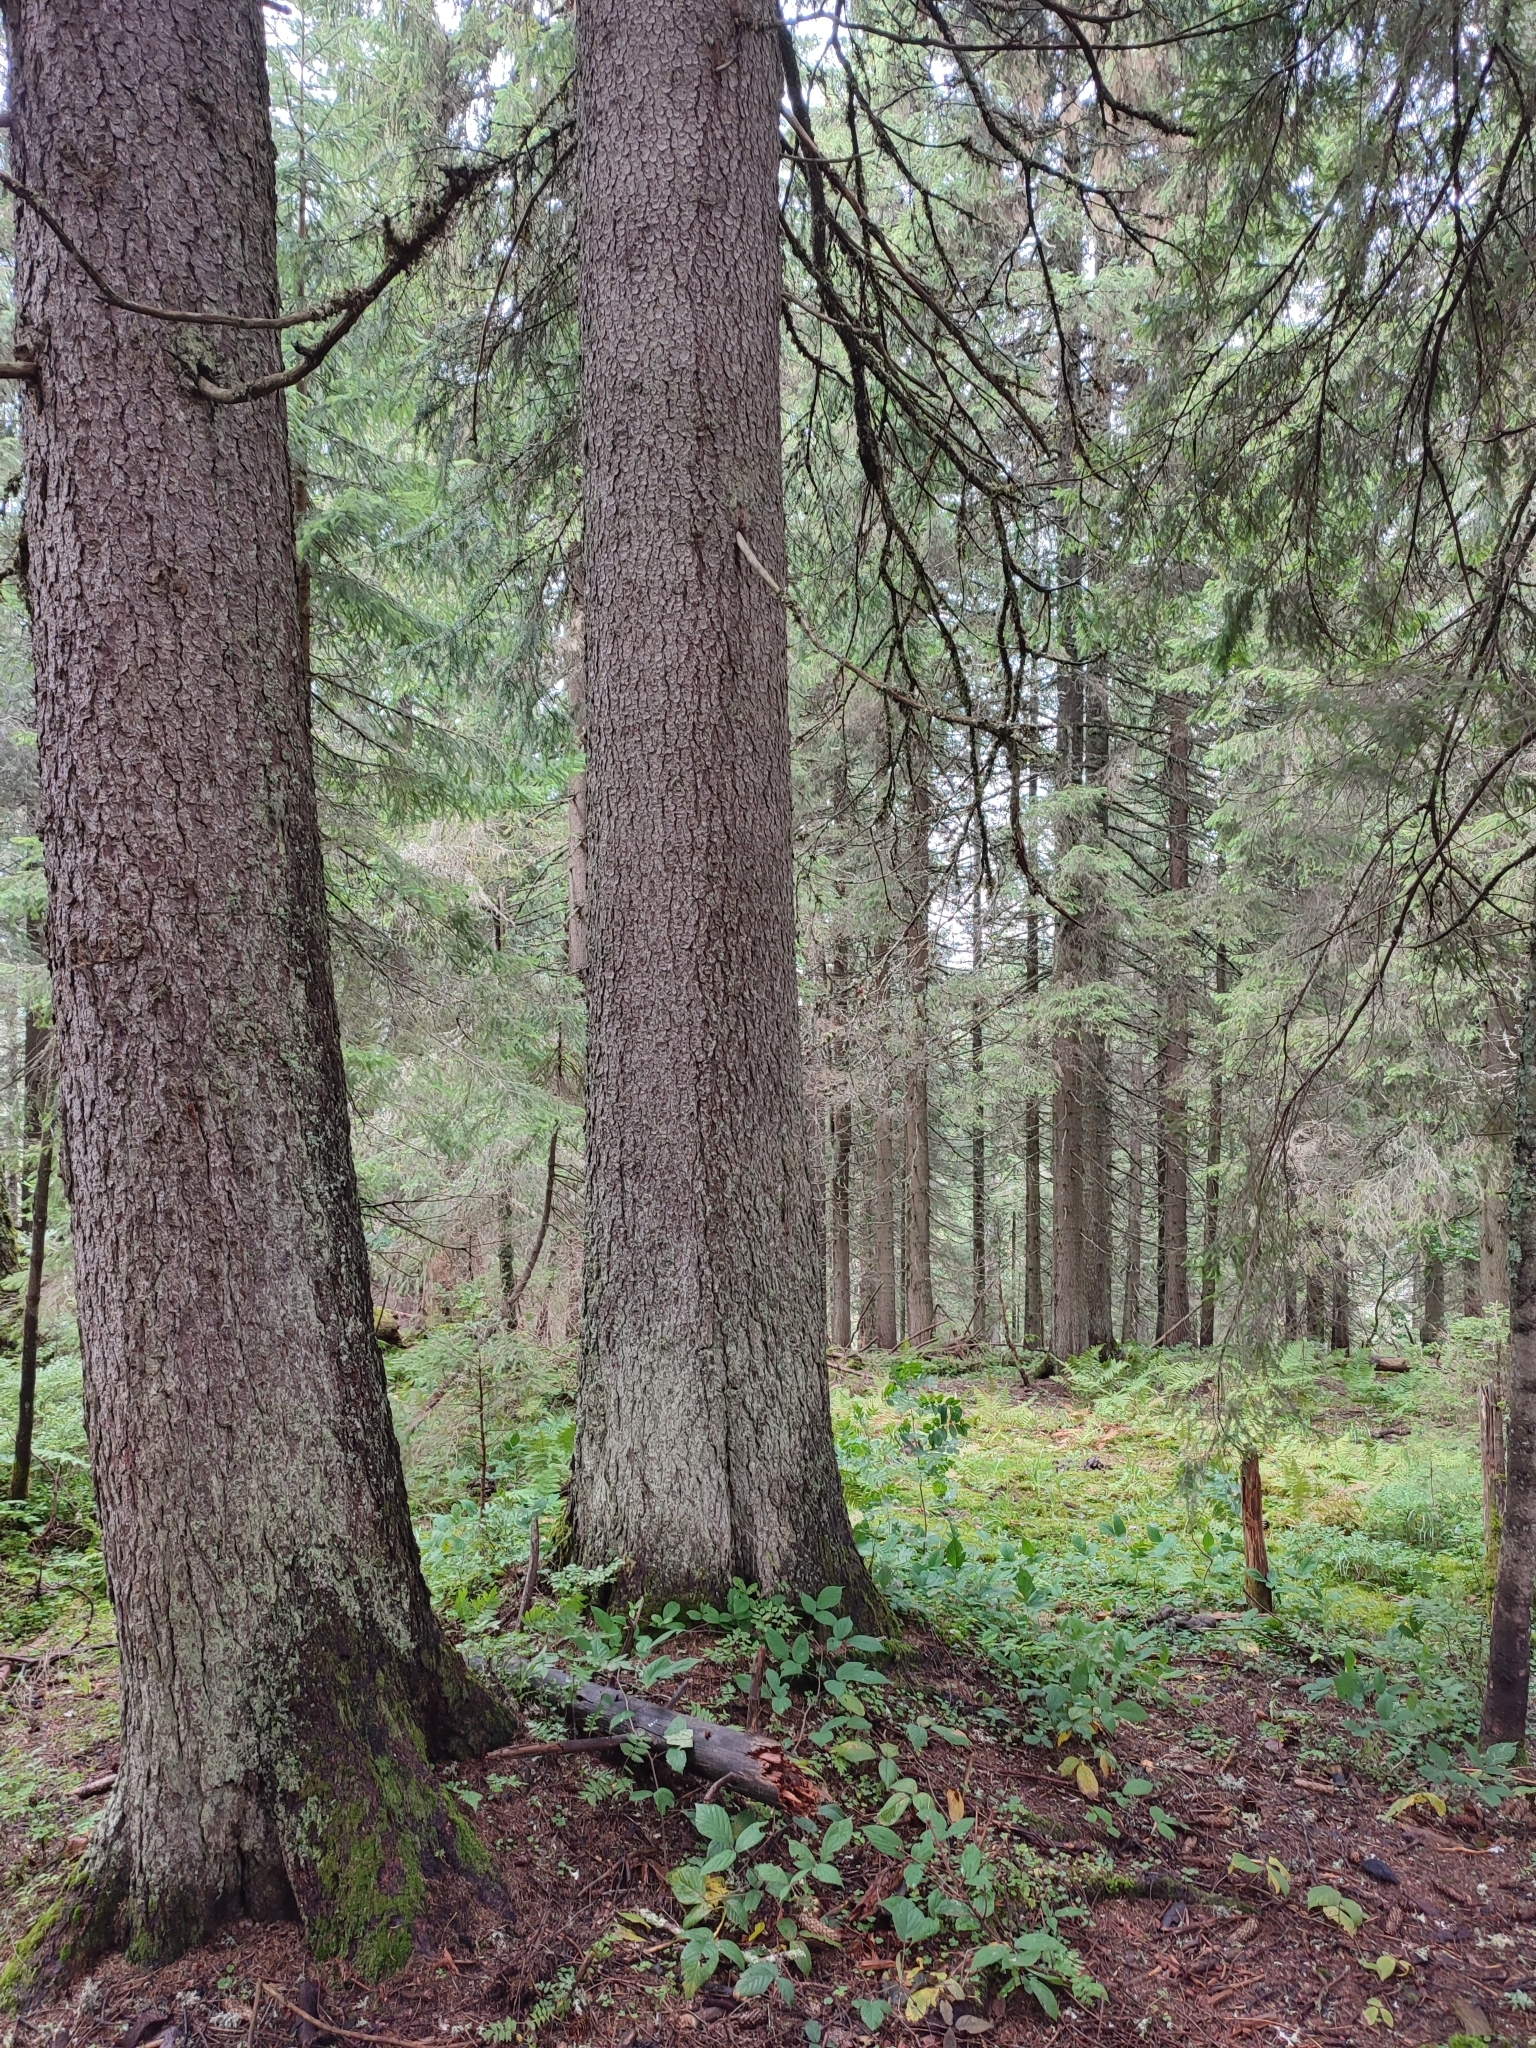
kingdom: Plantae
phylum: Tracheophyta
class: Pinopsida
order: Pinales
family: Pinaceae
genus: Picea
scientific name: Picea abies
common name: Norway spruce
